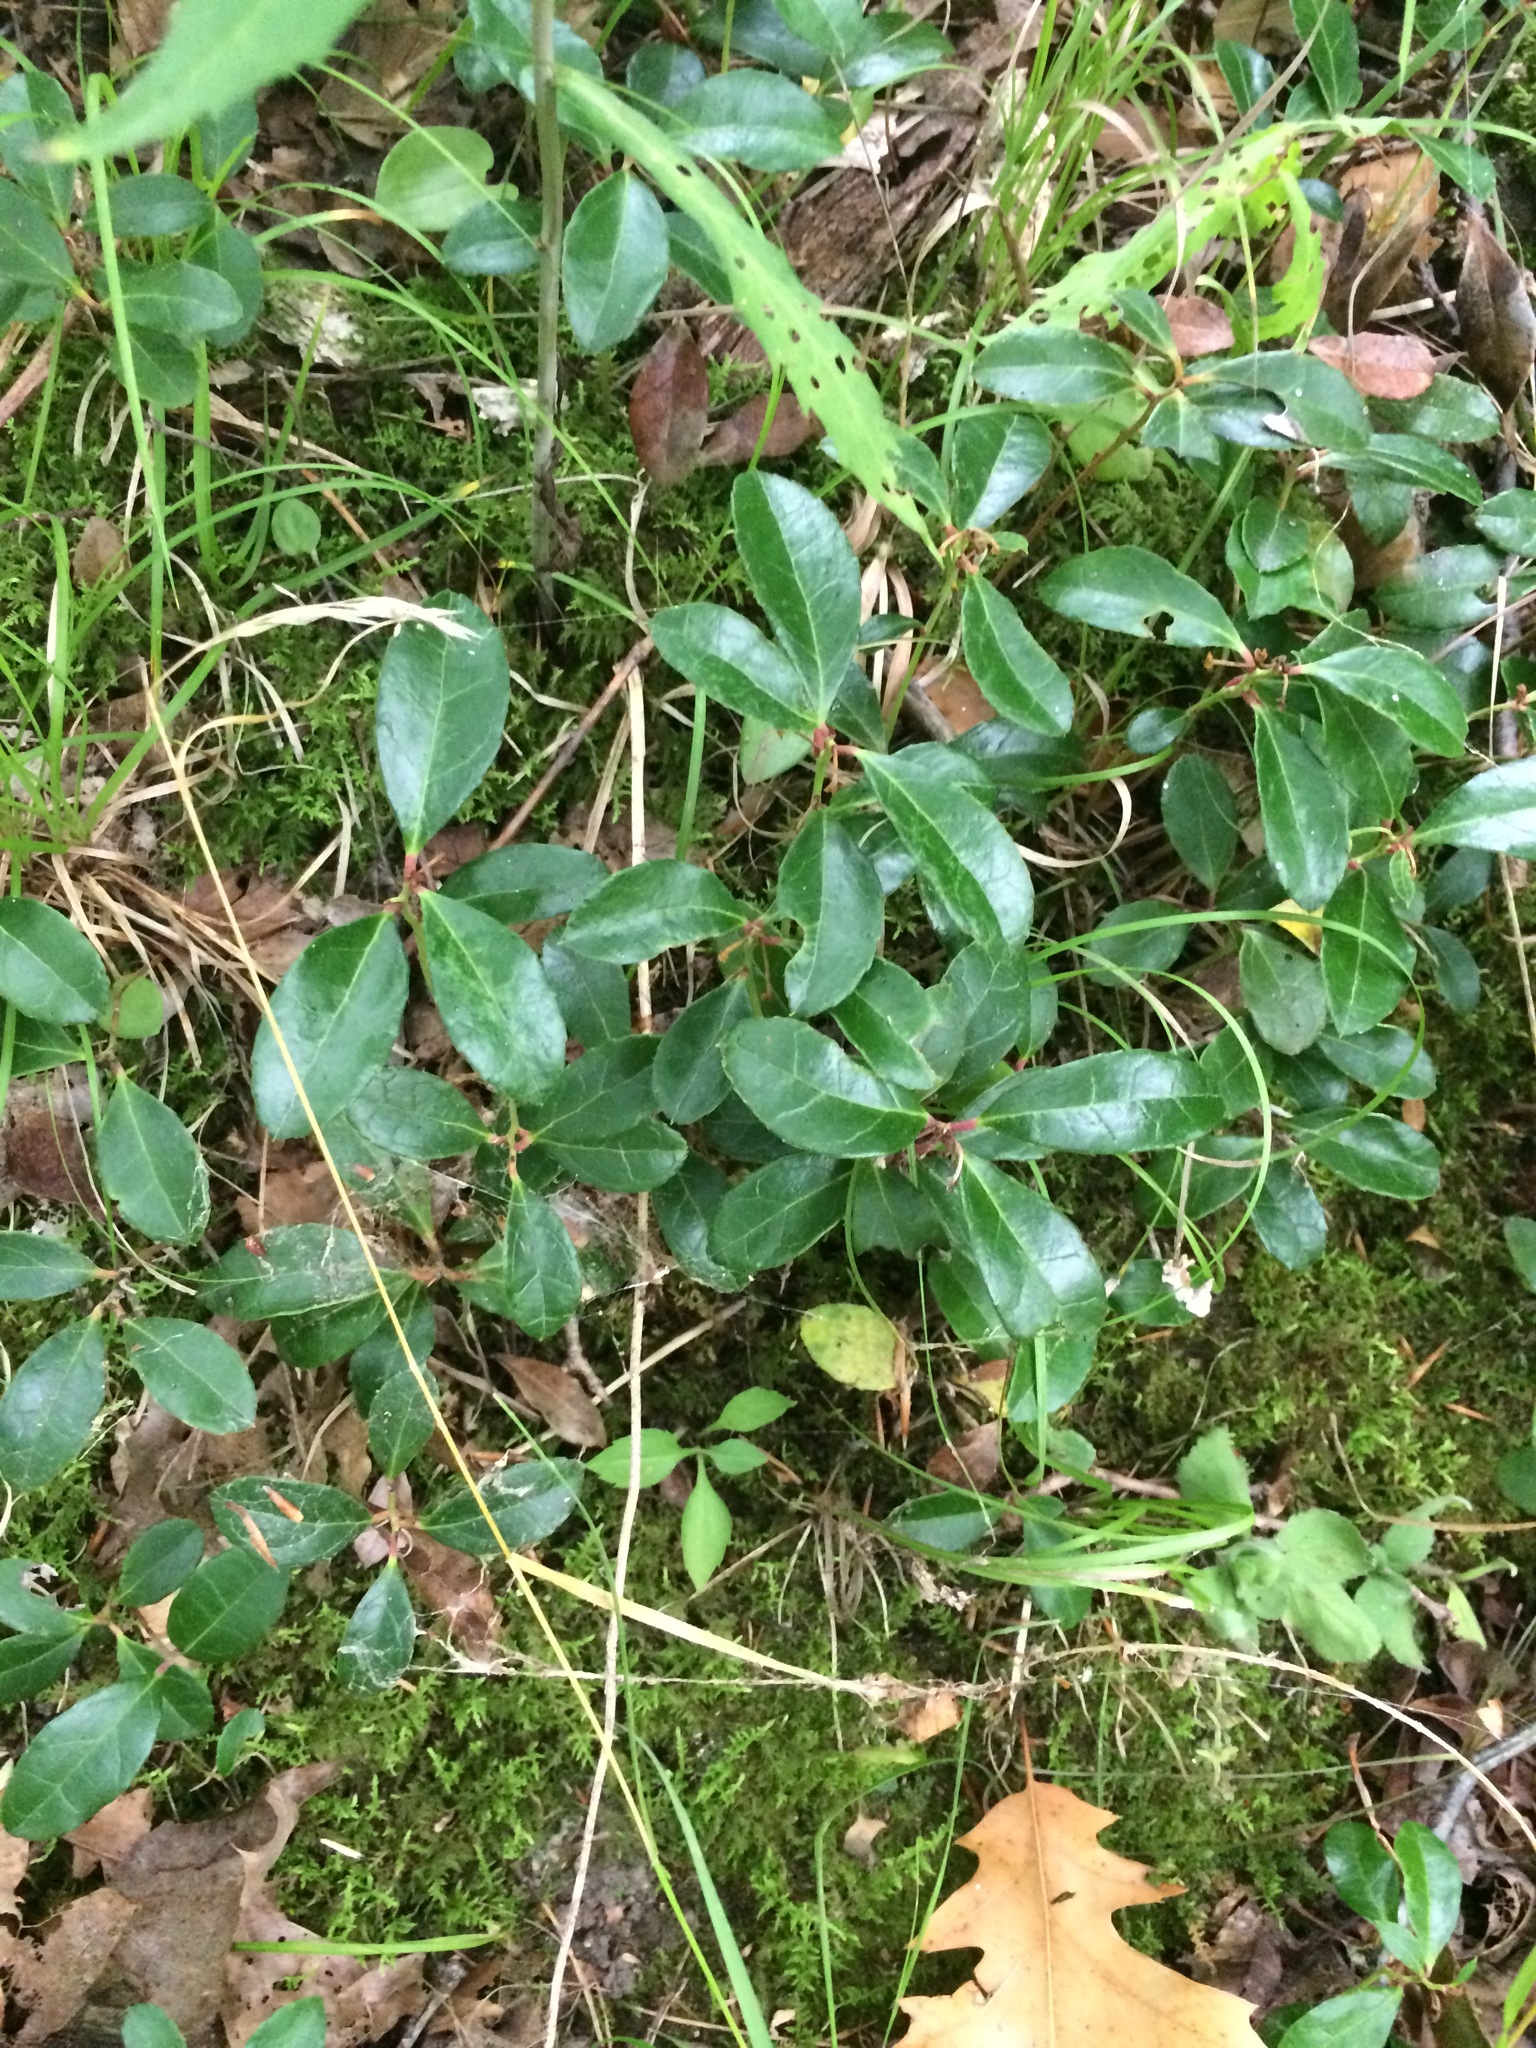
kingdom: Plantae
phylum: Tracheophyta
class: Magnoliopsida
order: Ericales
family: Ericaceae
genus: Gaultheria
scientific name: Gaultheria procumbens
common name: Checkerberry
